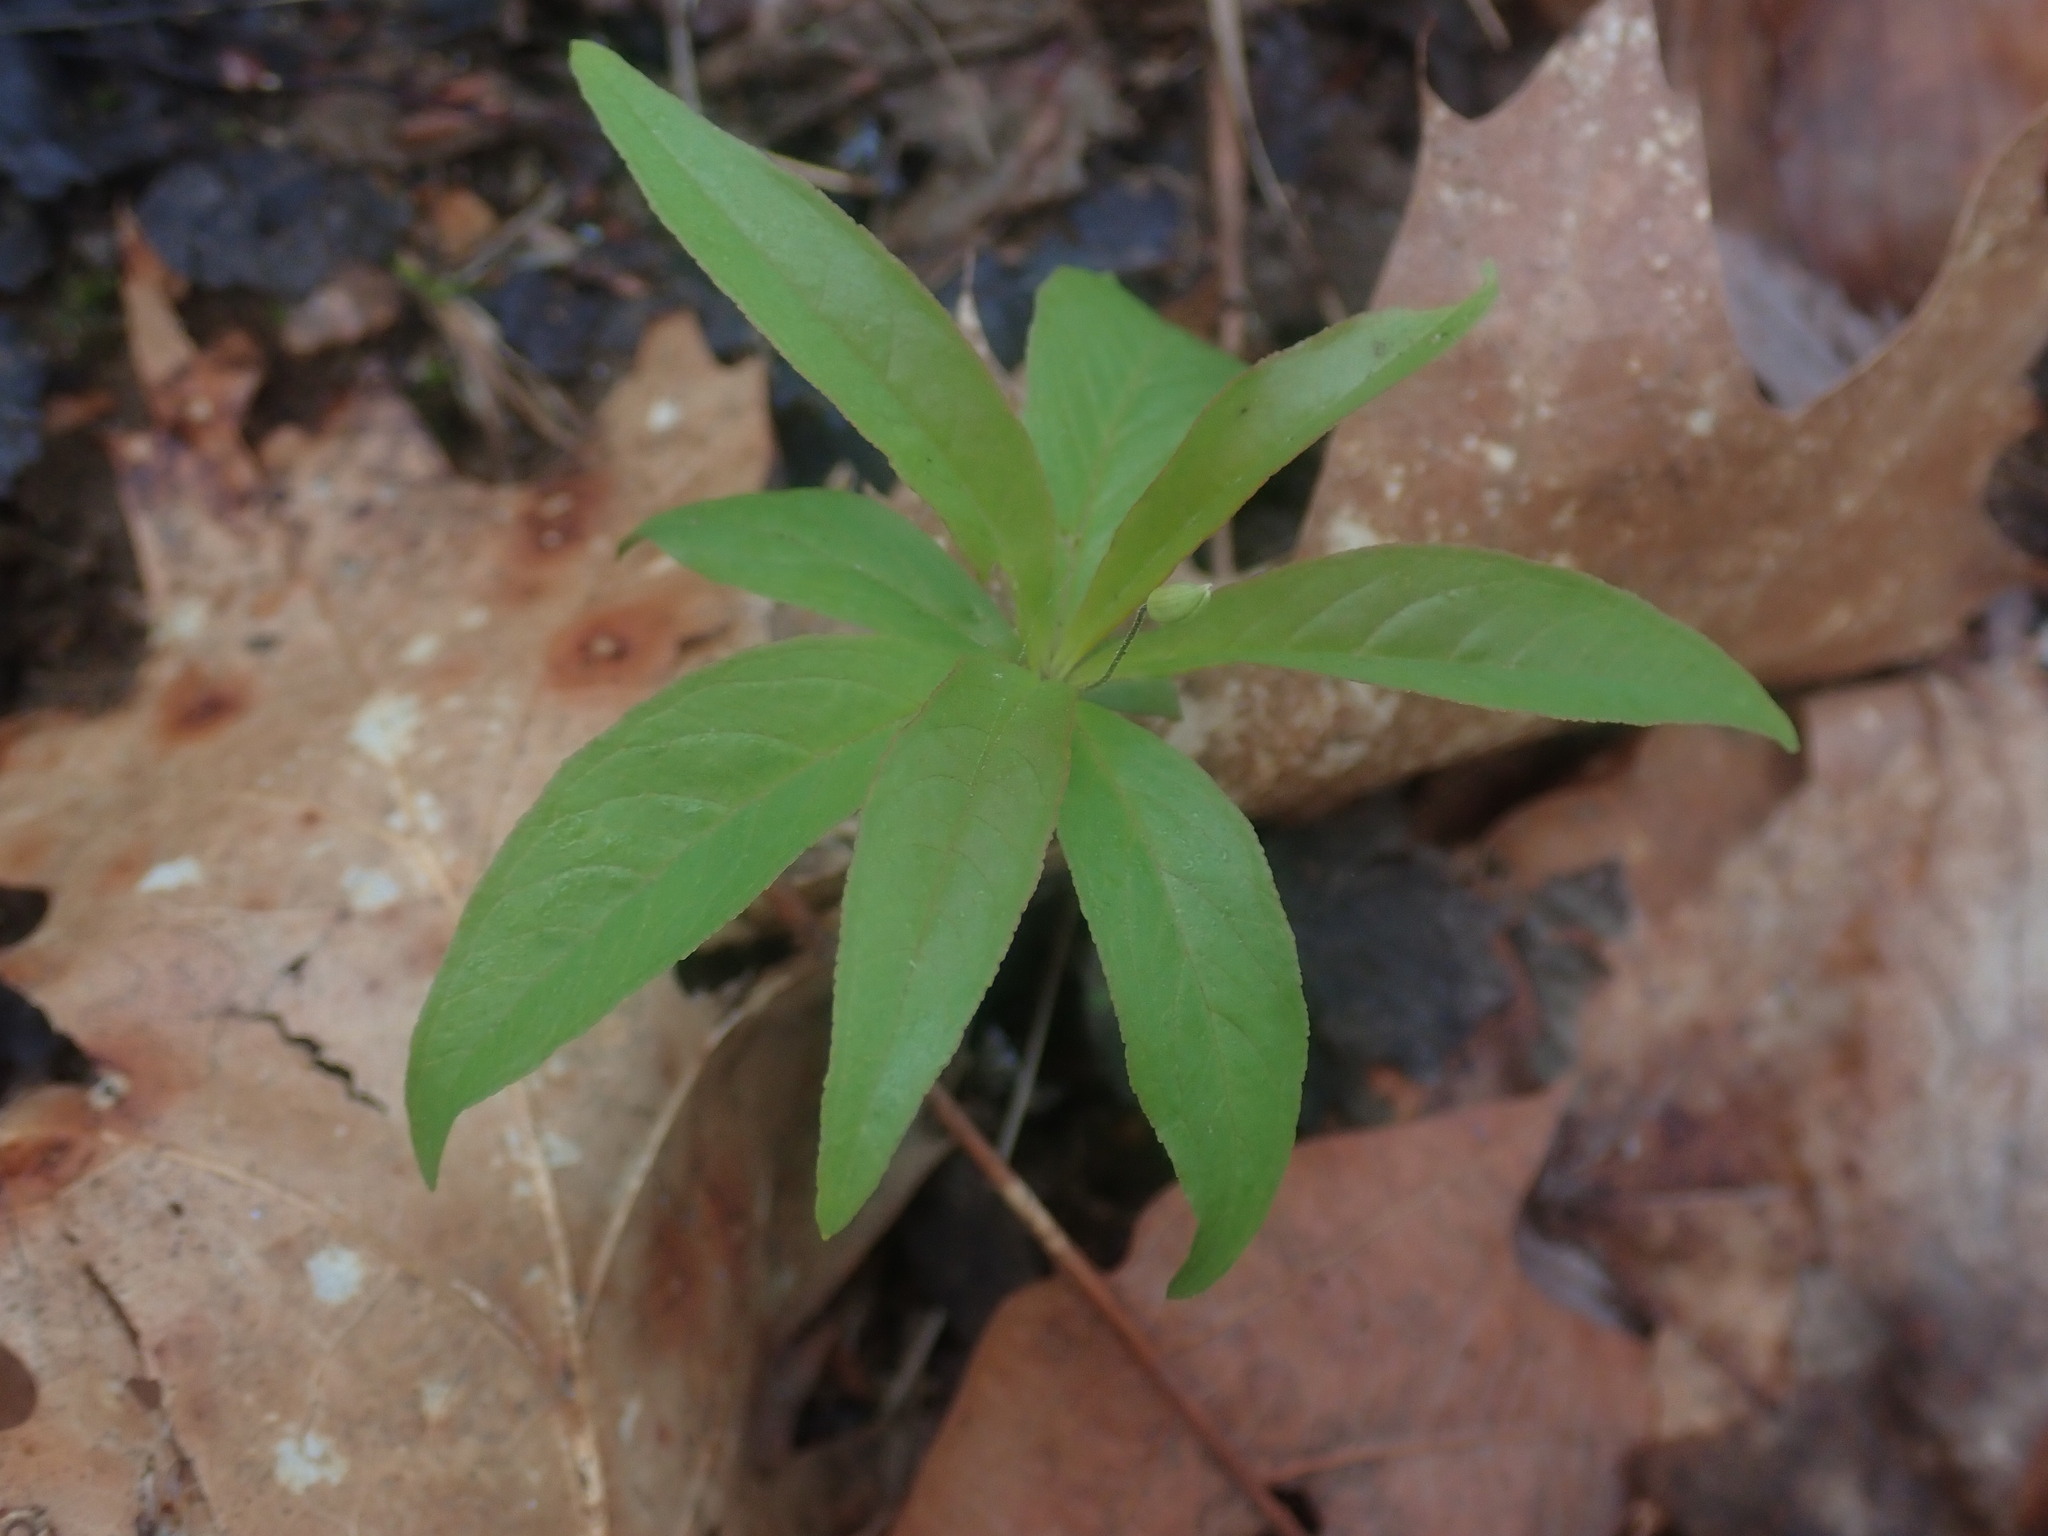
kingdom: Plantae
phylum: Tracheophyta
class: Magnoliopsida
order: Ericales
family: Primulaceae
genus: Lysimachia
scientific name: Lysimachia borealis
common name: American starflower
